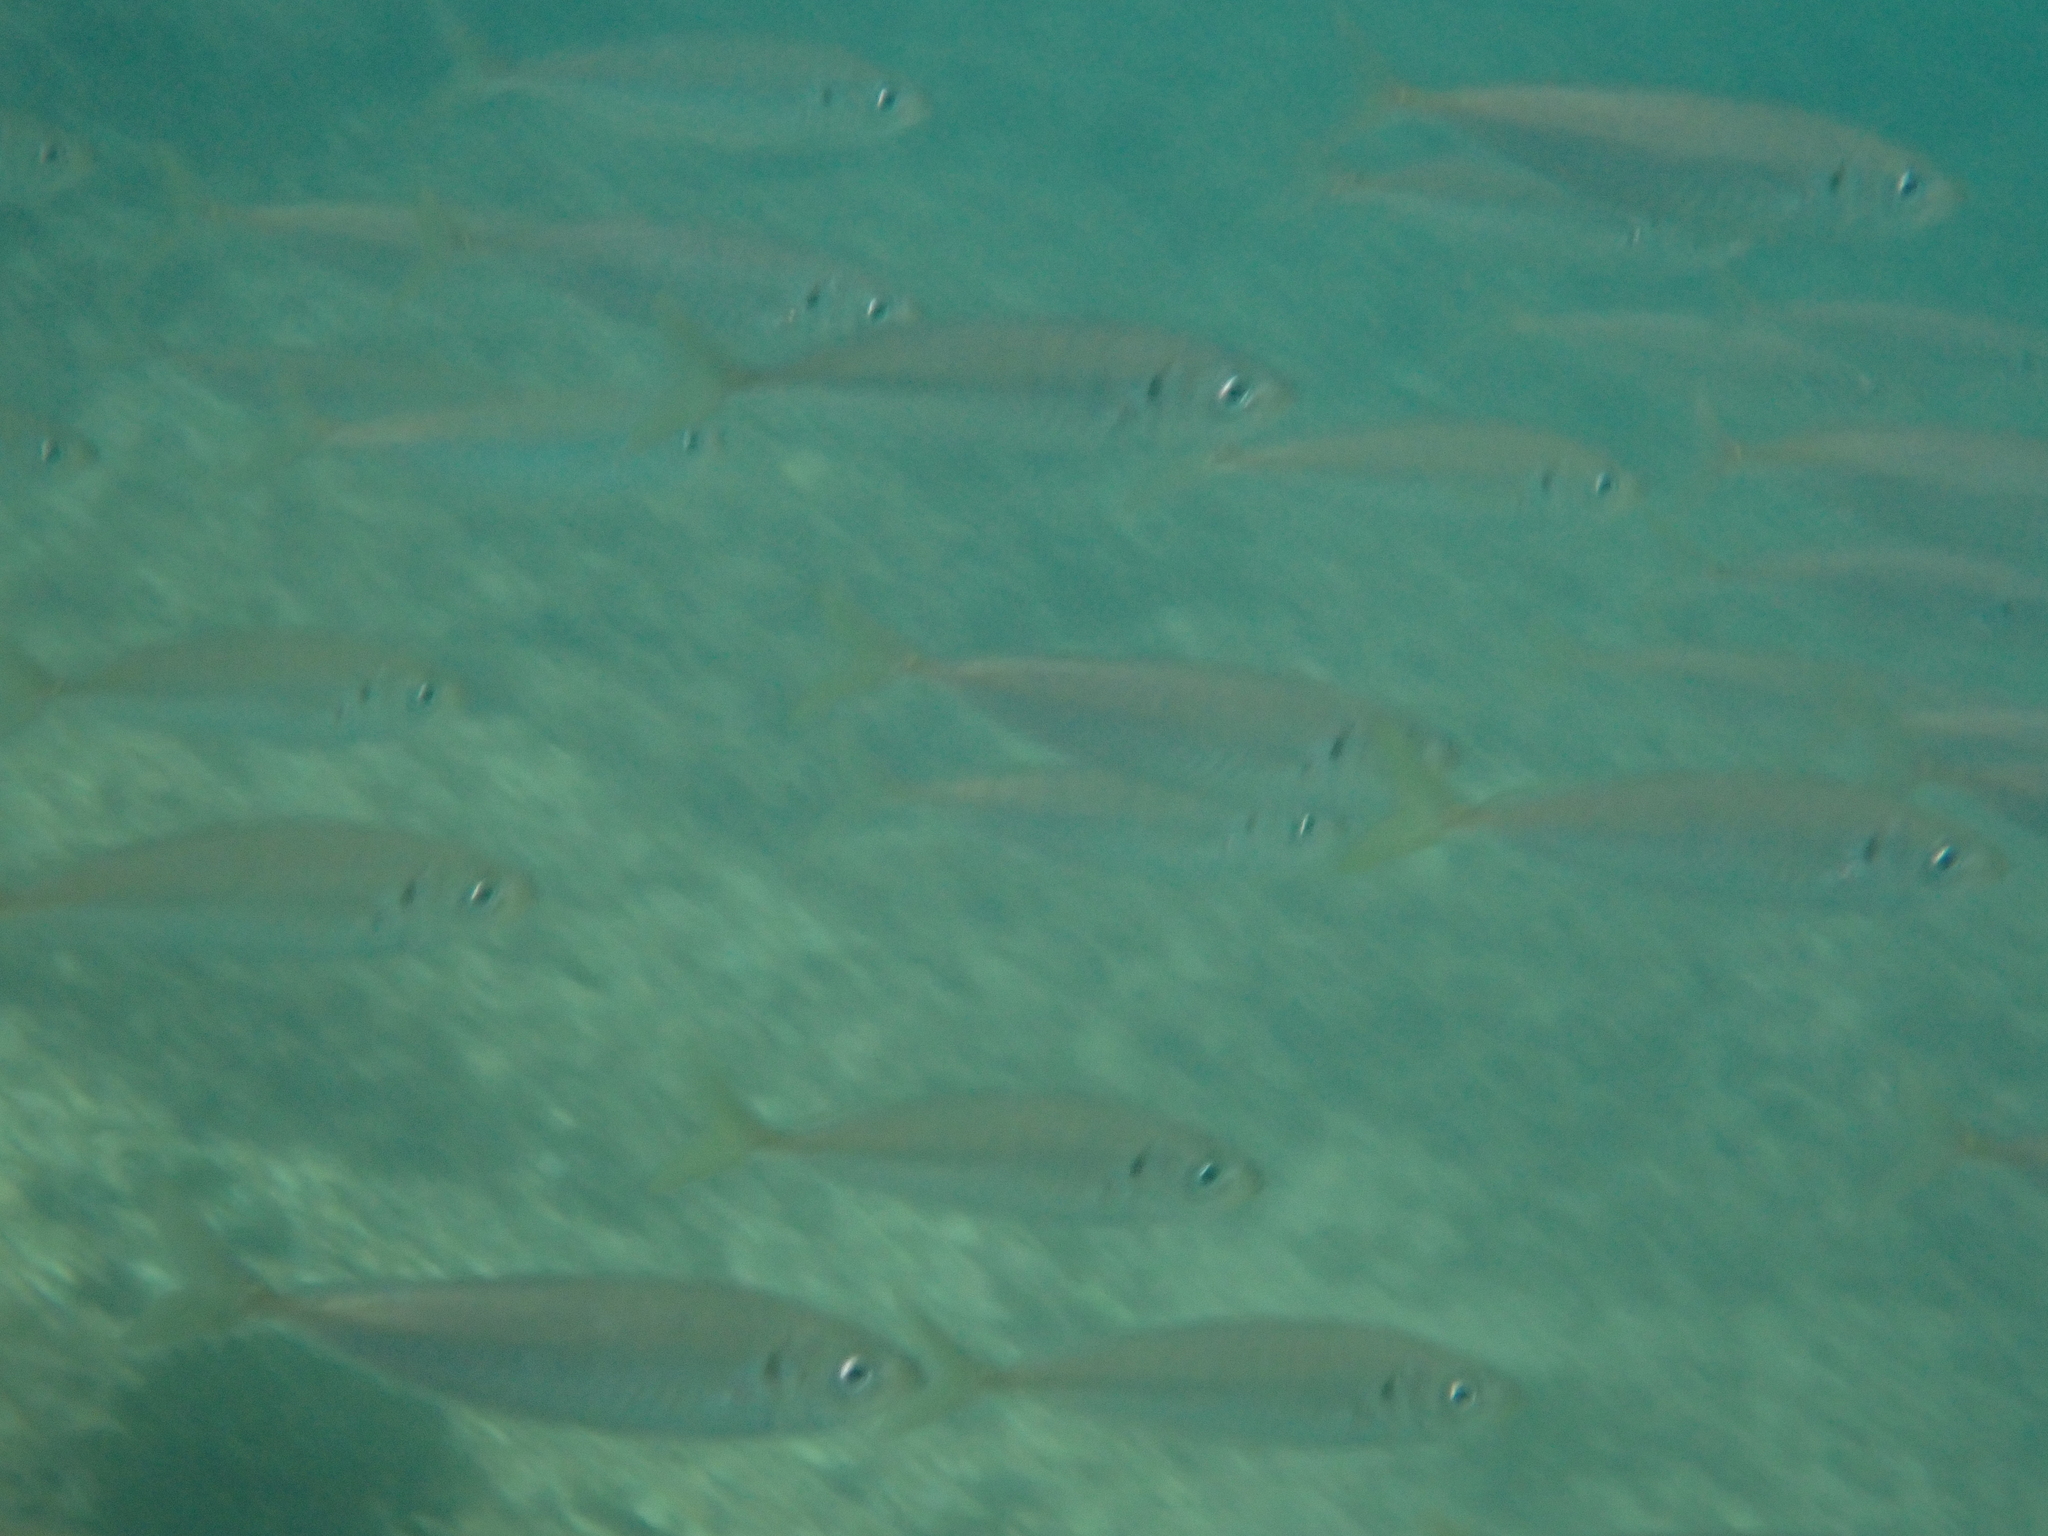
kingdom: Animalia
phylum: Chordata
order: Perciformes
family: Carangidae
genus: Trachurus
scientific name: Trachurus novaezelandiae
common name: Yellowtail horse mackerel
